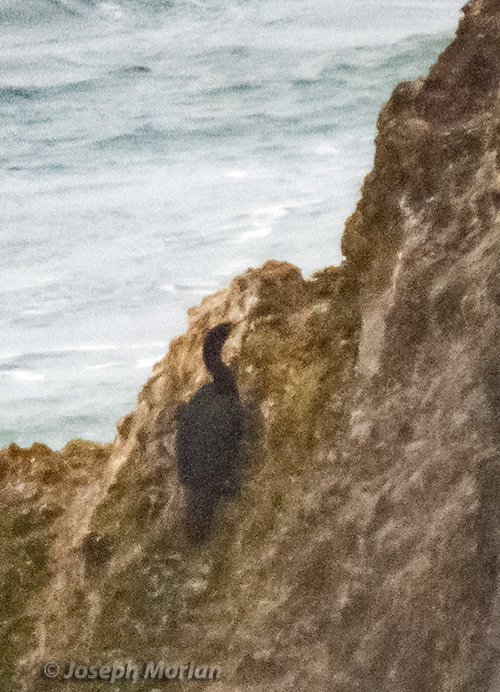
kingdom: Animalia
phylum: Chordata
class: Aves
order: Suliformes
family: Phalacrocoracidae
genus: Phalacrocorax
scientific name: Phalacrocorax pelagicus
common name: Pelagic cormorant
